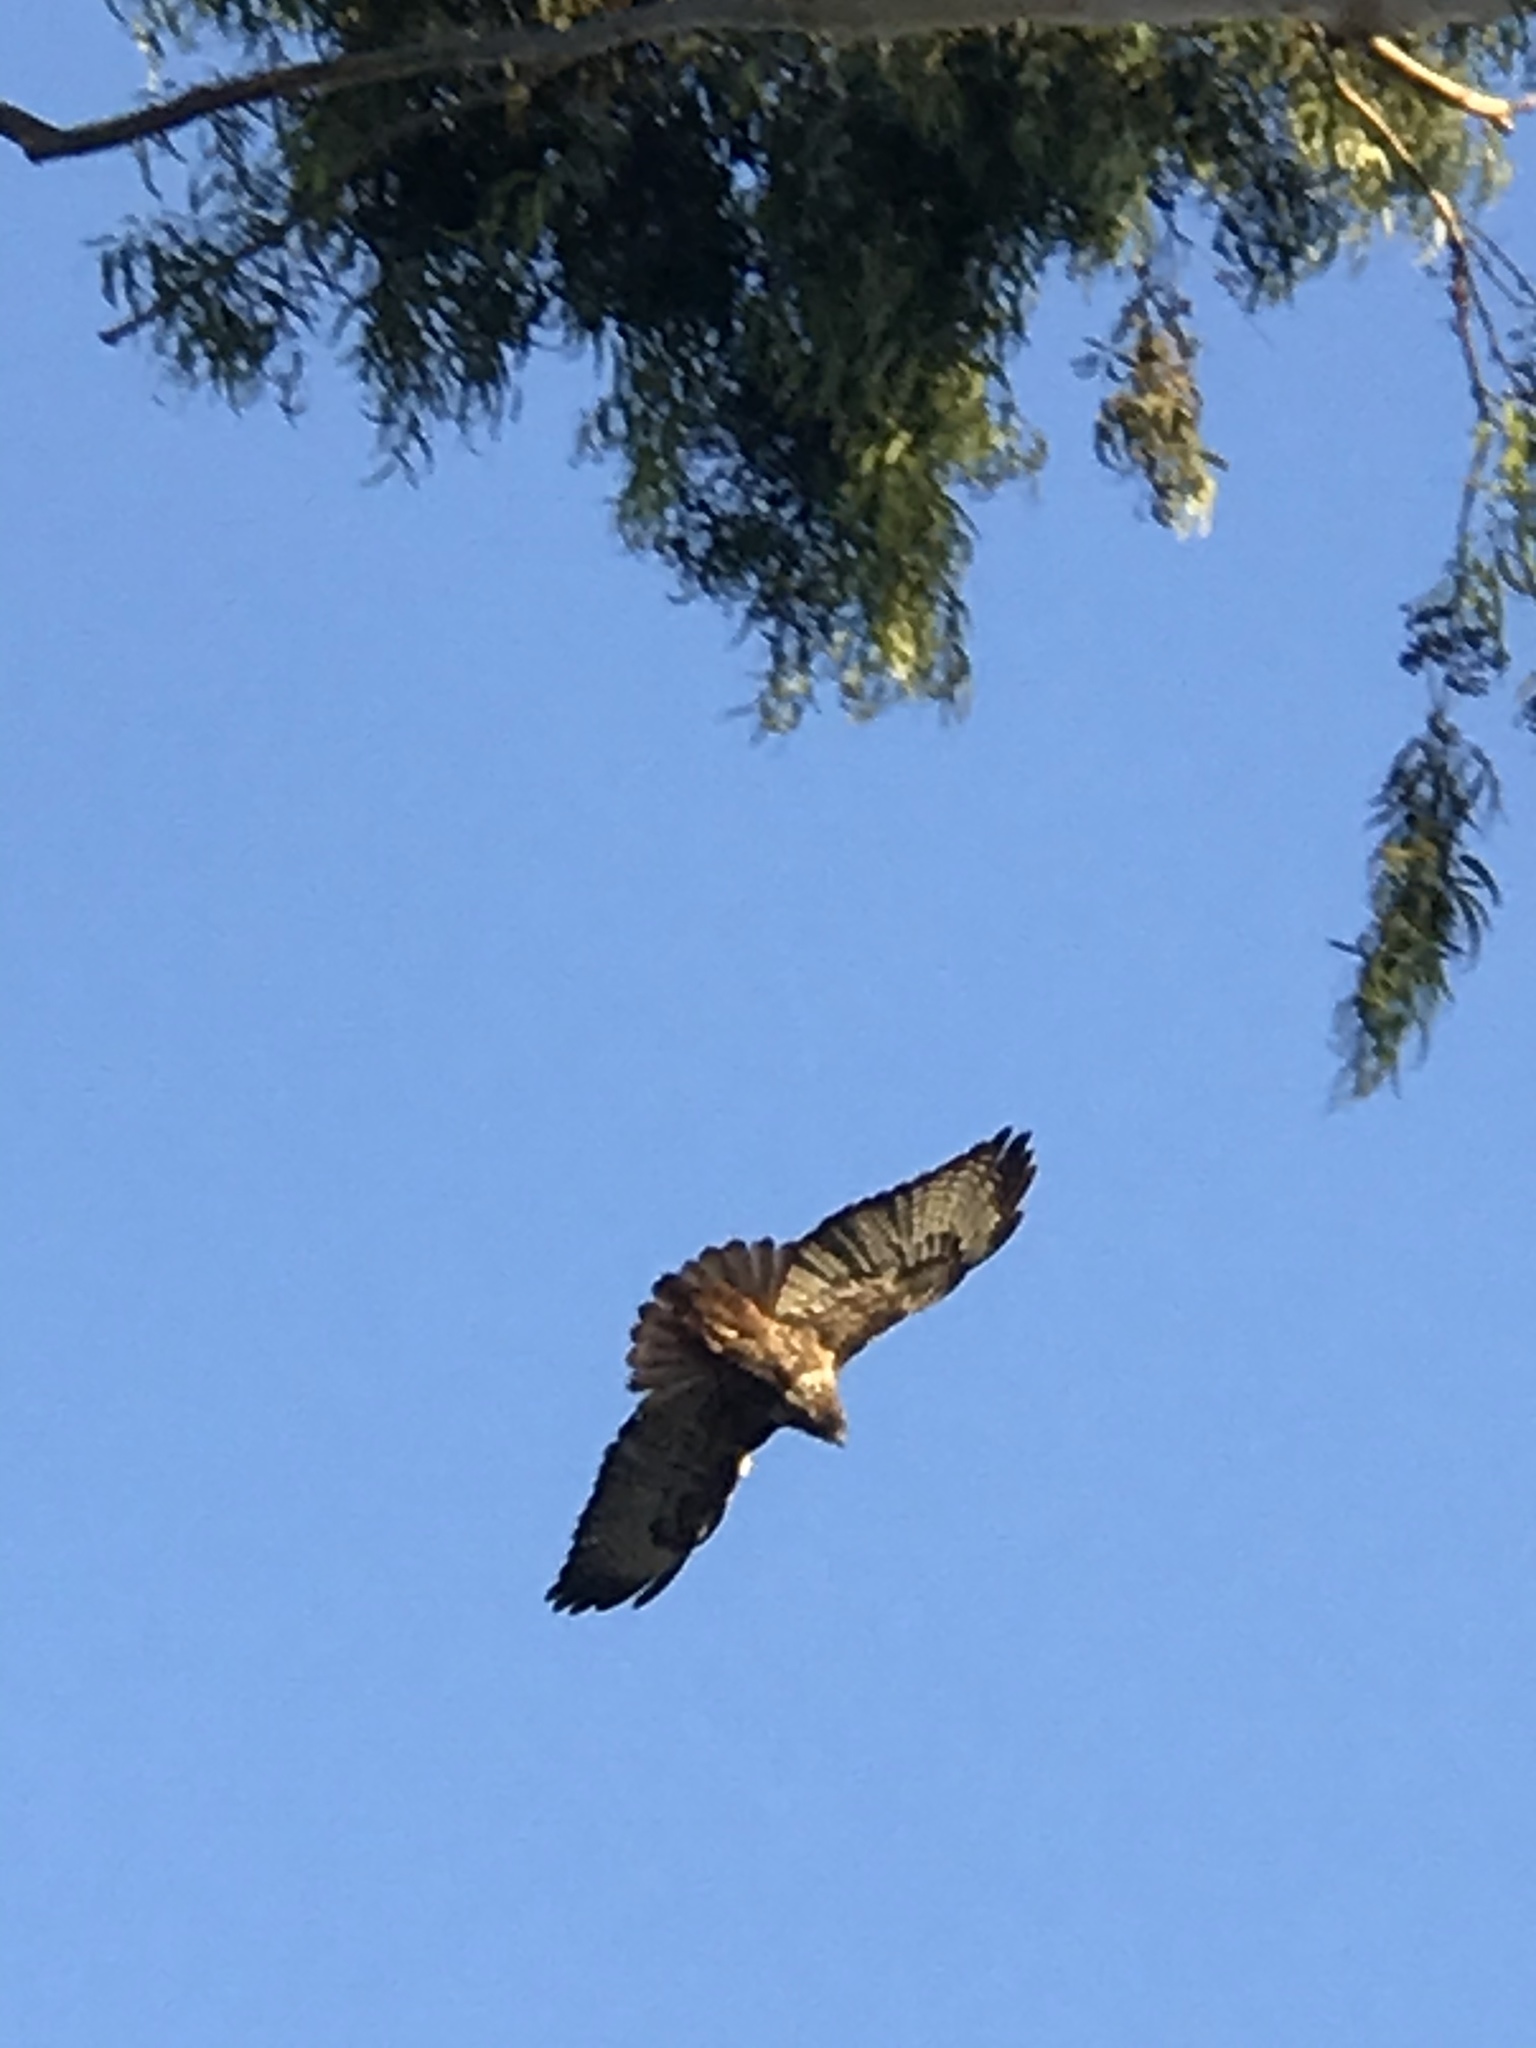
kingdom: Animalia
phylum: Chordata
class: Aves
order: Accipitriformes
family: Accipitridae
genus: Buteo
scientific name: Buteo jamaicensis
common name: Red-tailed hawk
